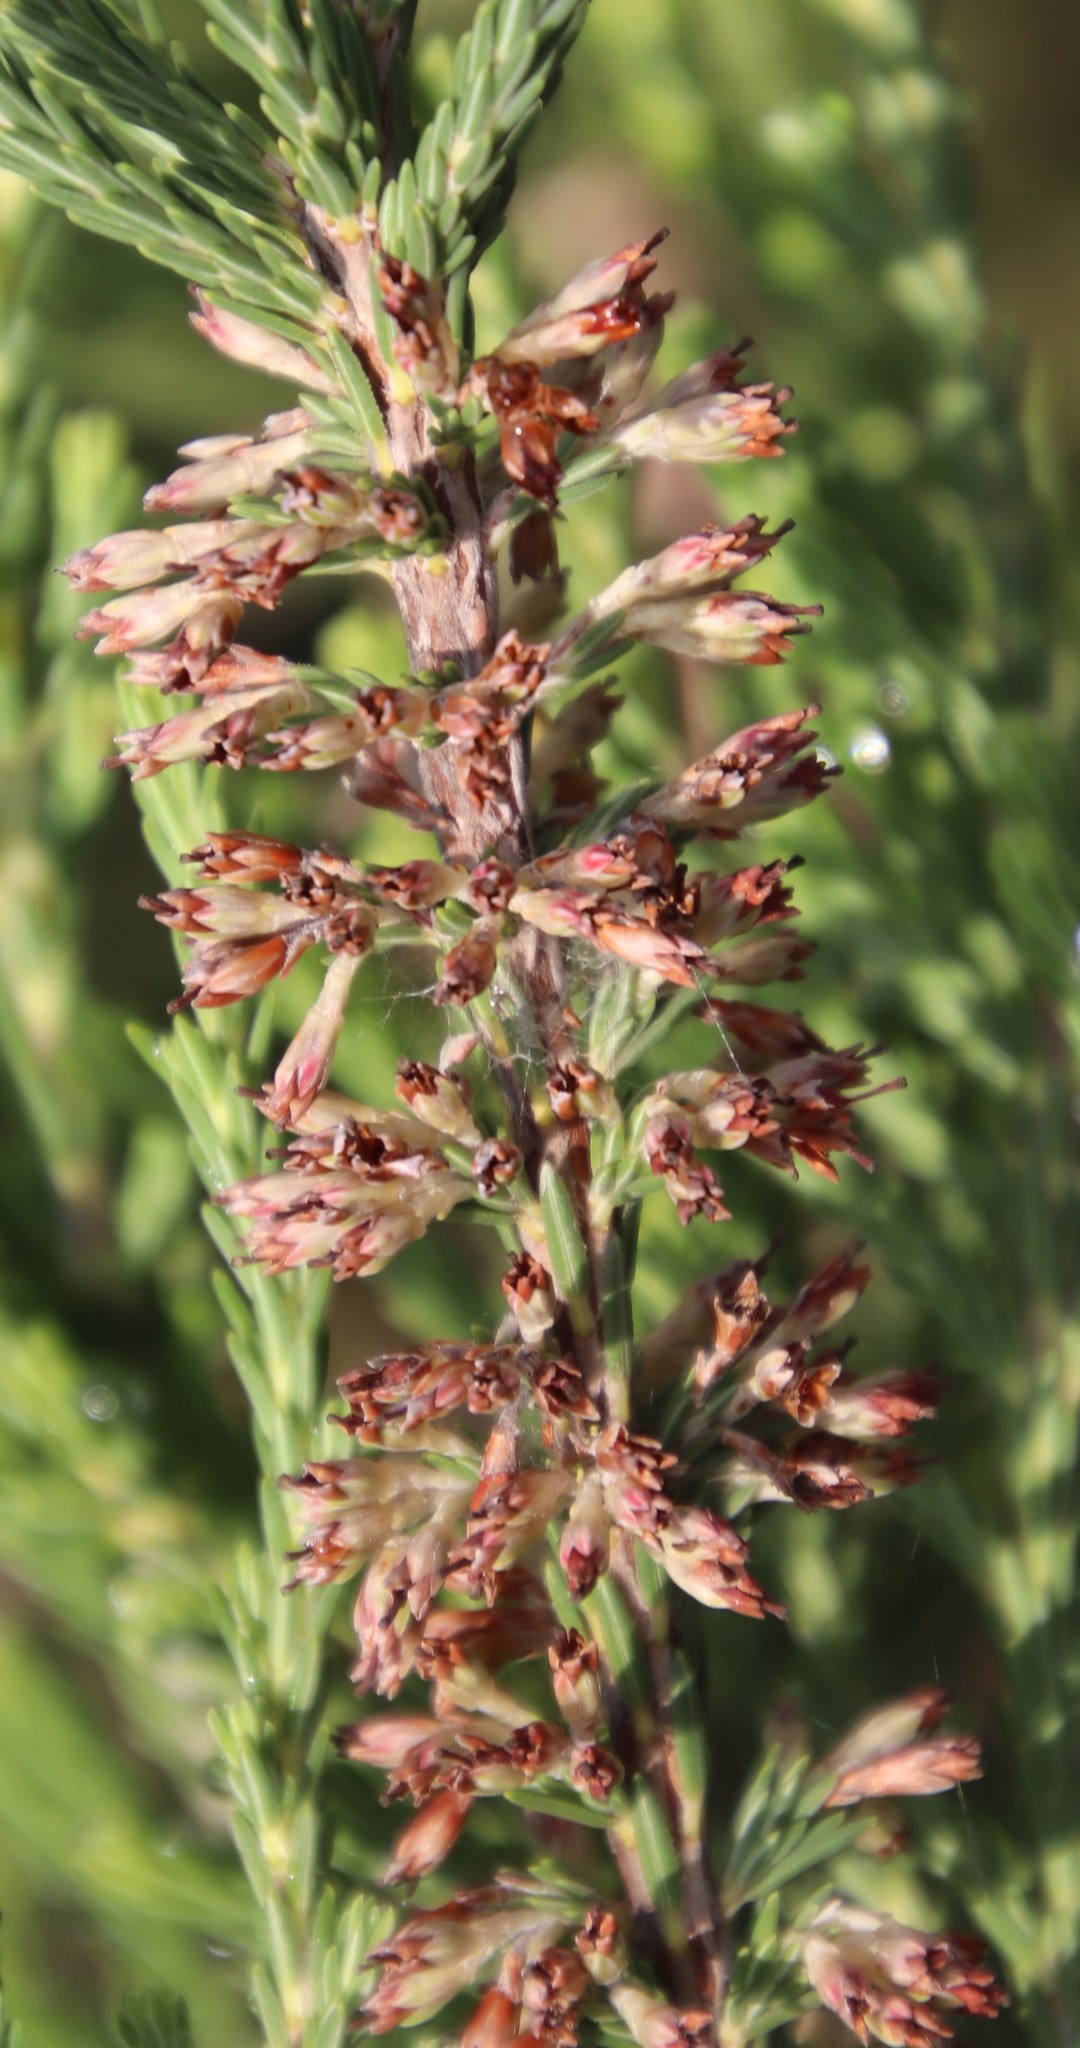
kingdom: Plantae
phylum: Tracheophyta
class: Magnoliopsida
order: Ericales
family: Ericaceae
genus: Erica
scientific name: Erica caffrorum
